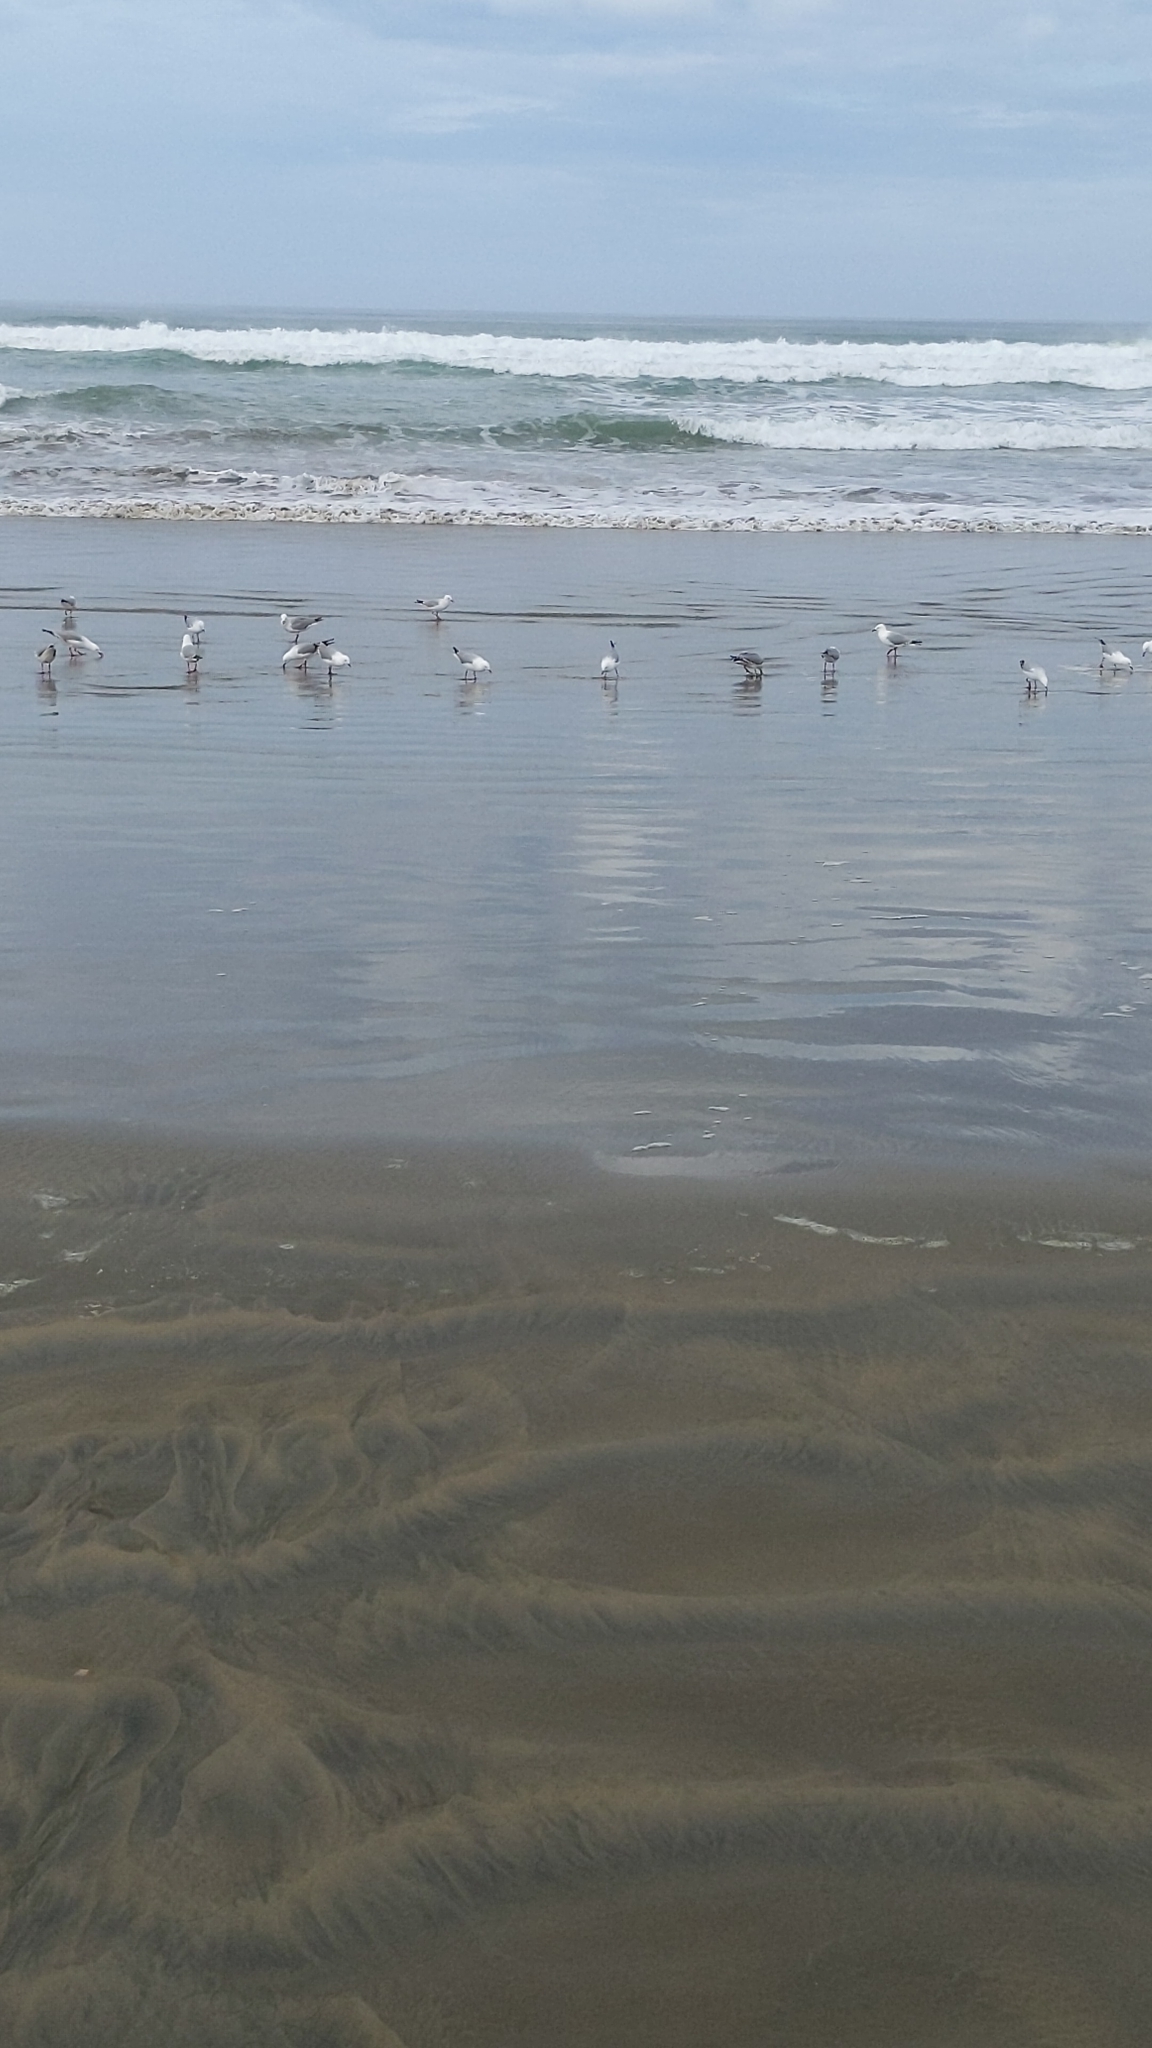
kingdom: Animalia
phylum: Chordata
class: Aves
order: Charadriiformes
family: Laridae
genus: Chroicocephalus
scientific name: Chroicocephalus novaehollandiae
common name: Silver gull
